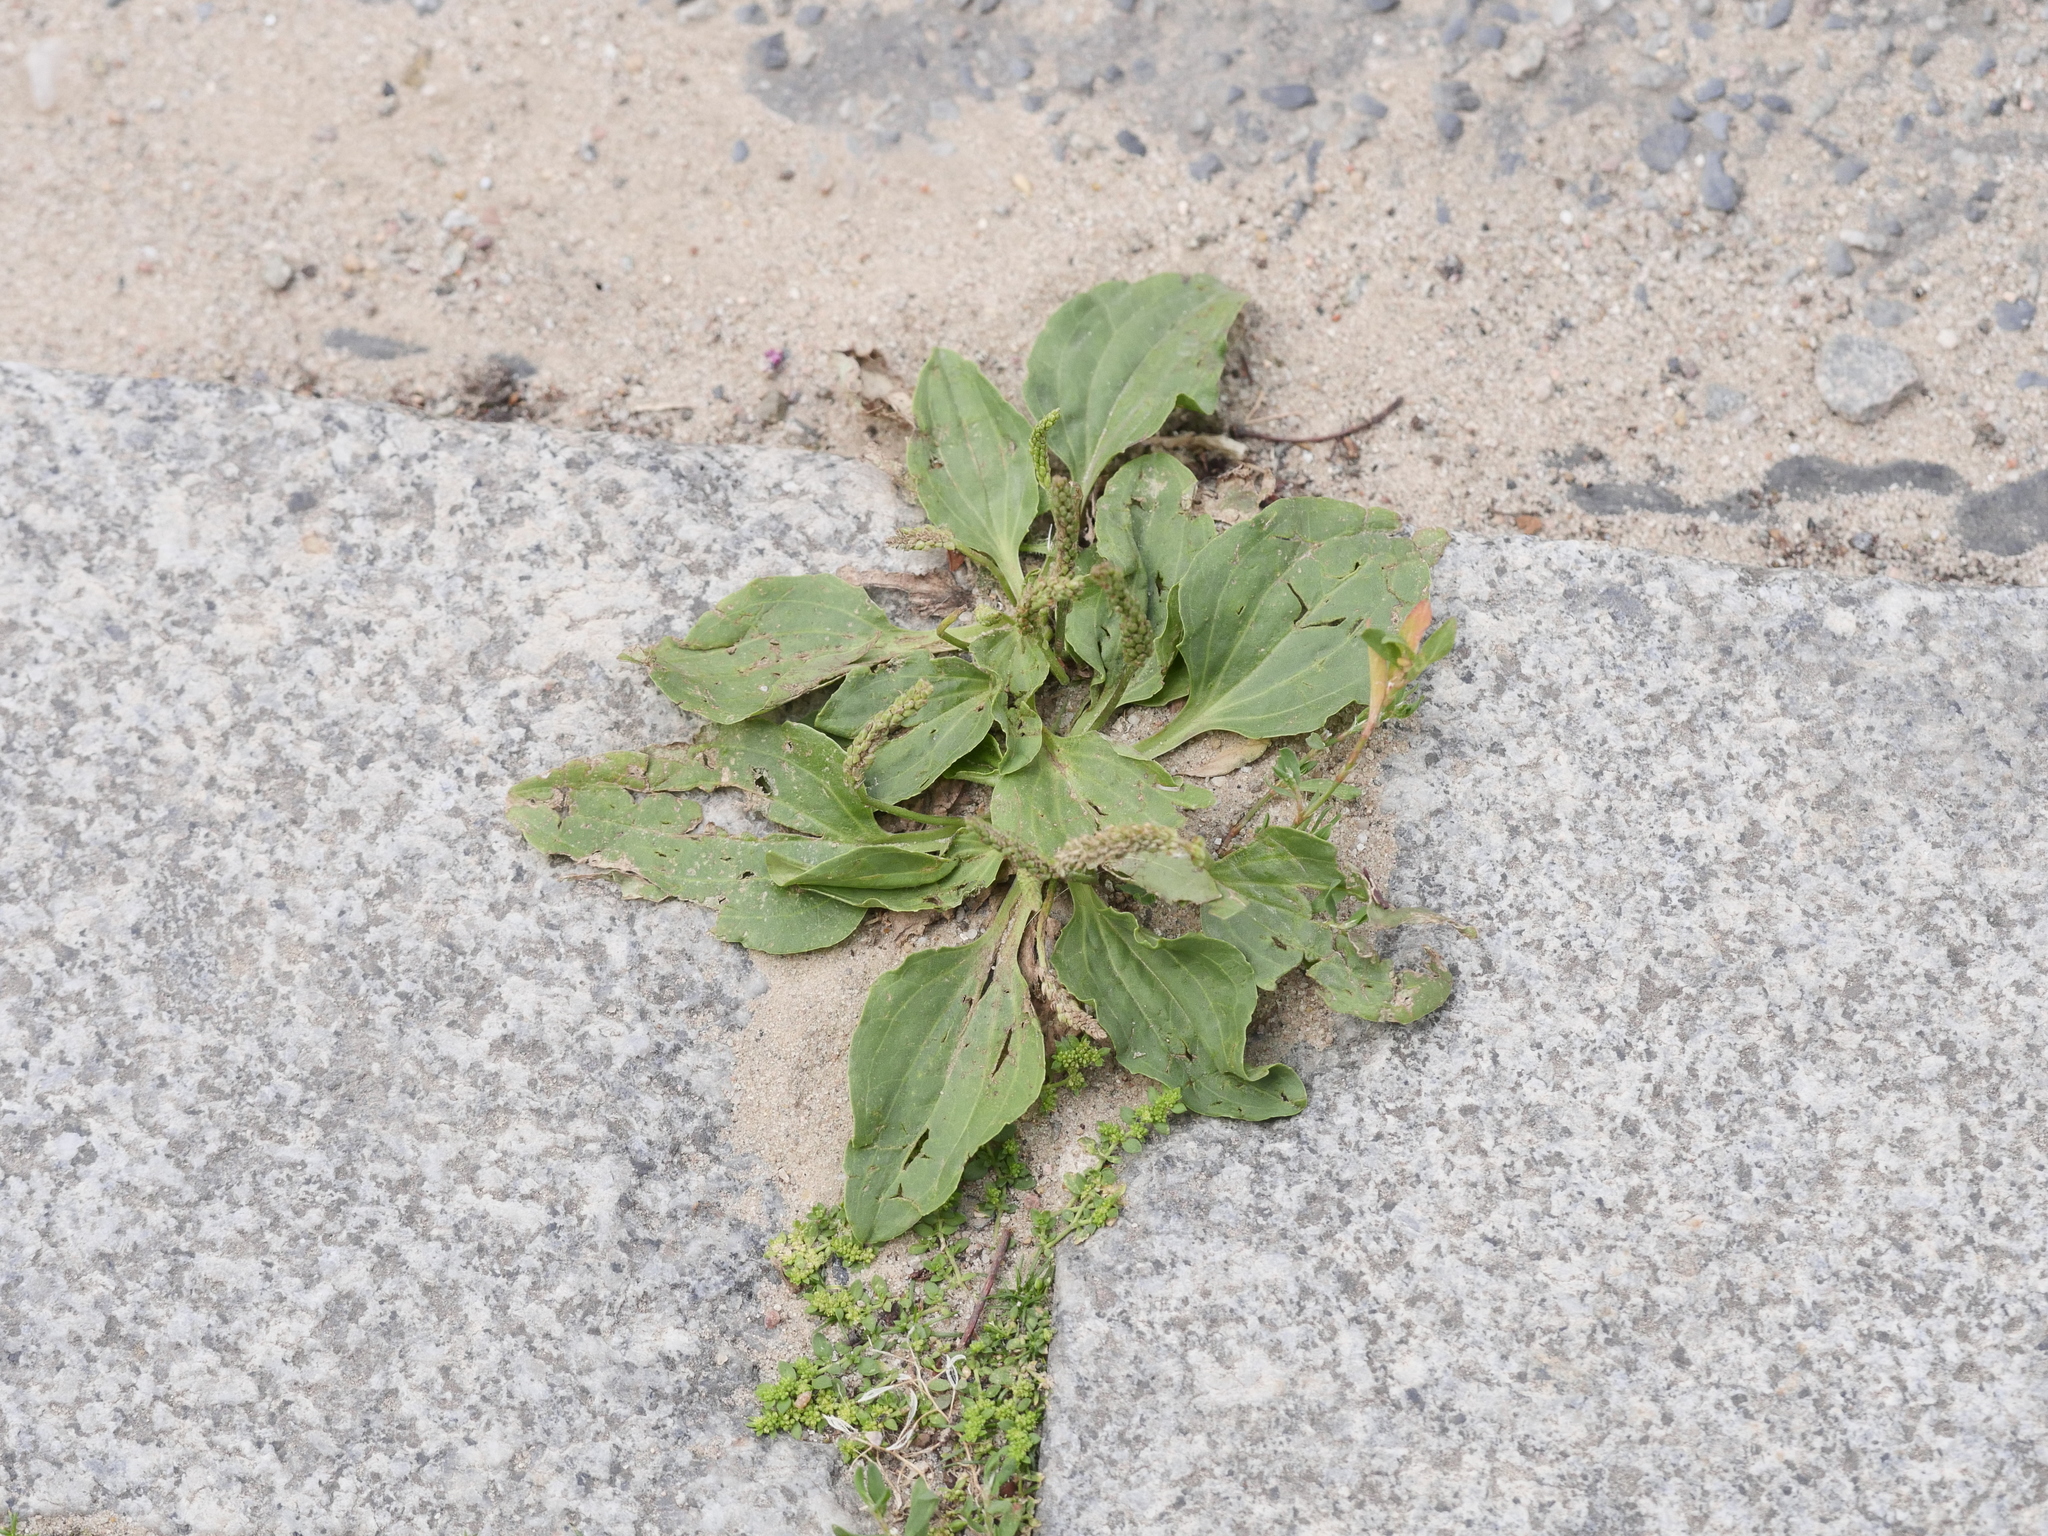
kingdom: Plantae
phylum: Tracheophyta
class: Magnoliopsida
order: Lamiales
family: Plantaginaceae
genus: Plantago
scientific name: Plantago major
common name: Common plantain
